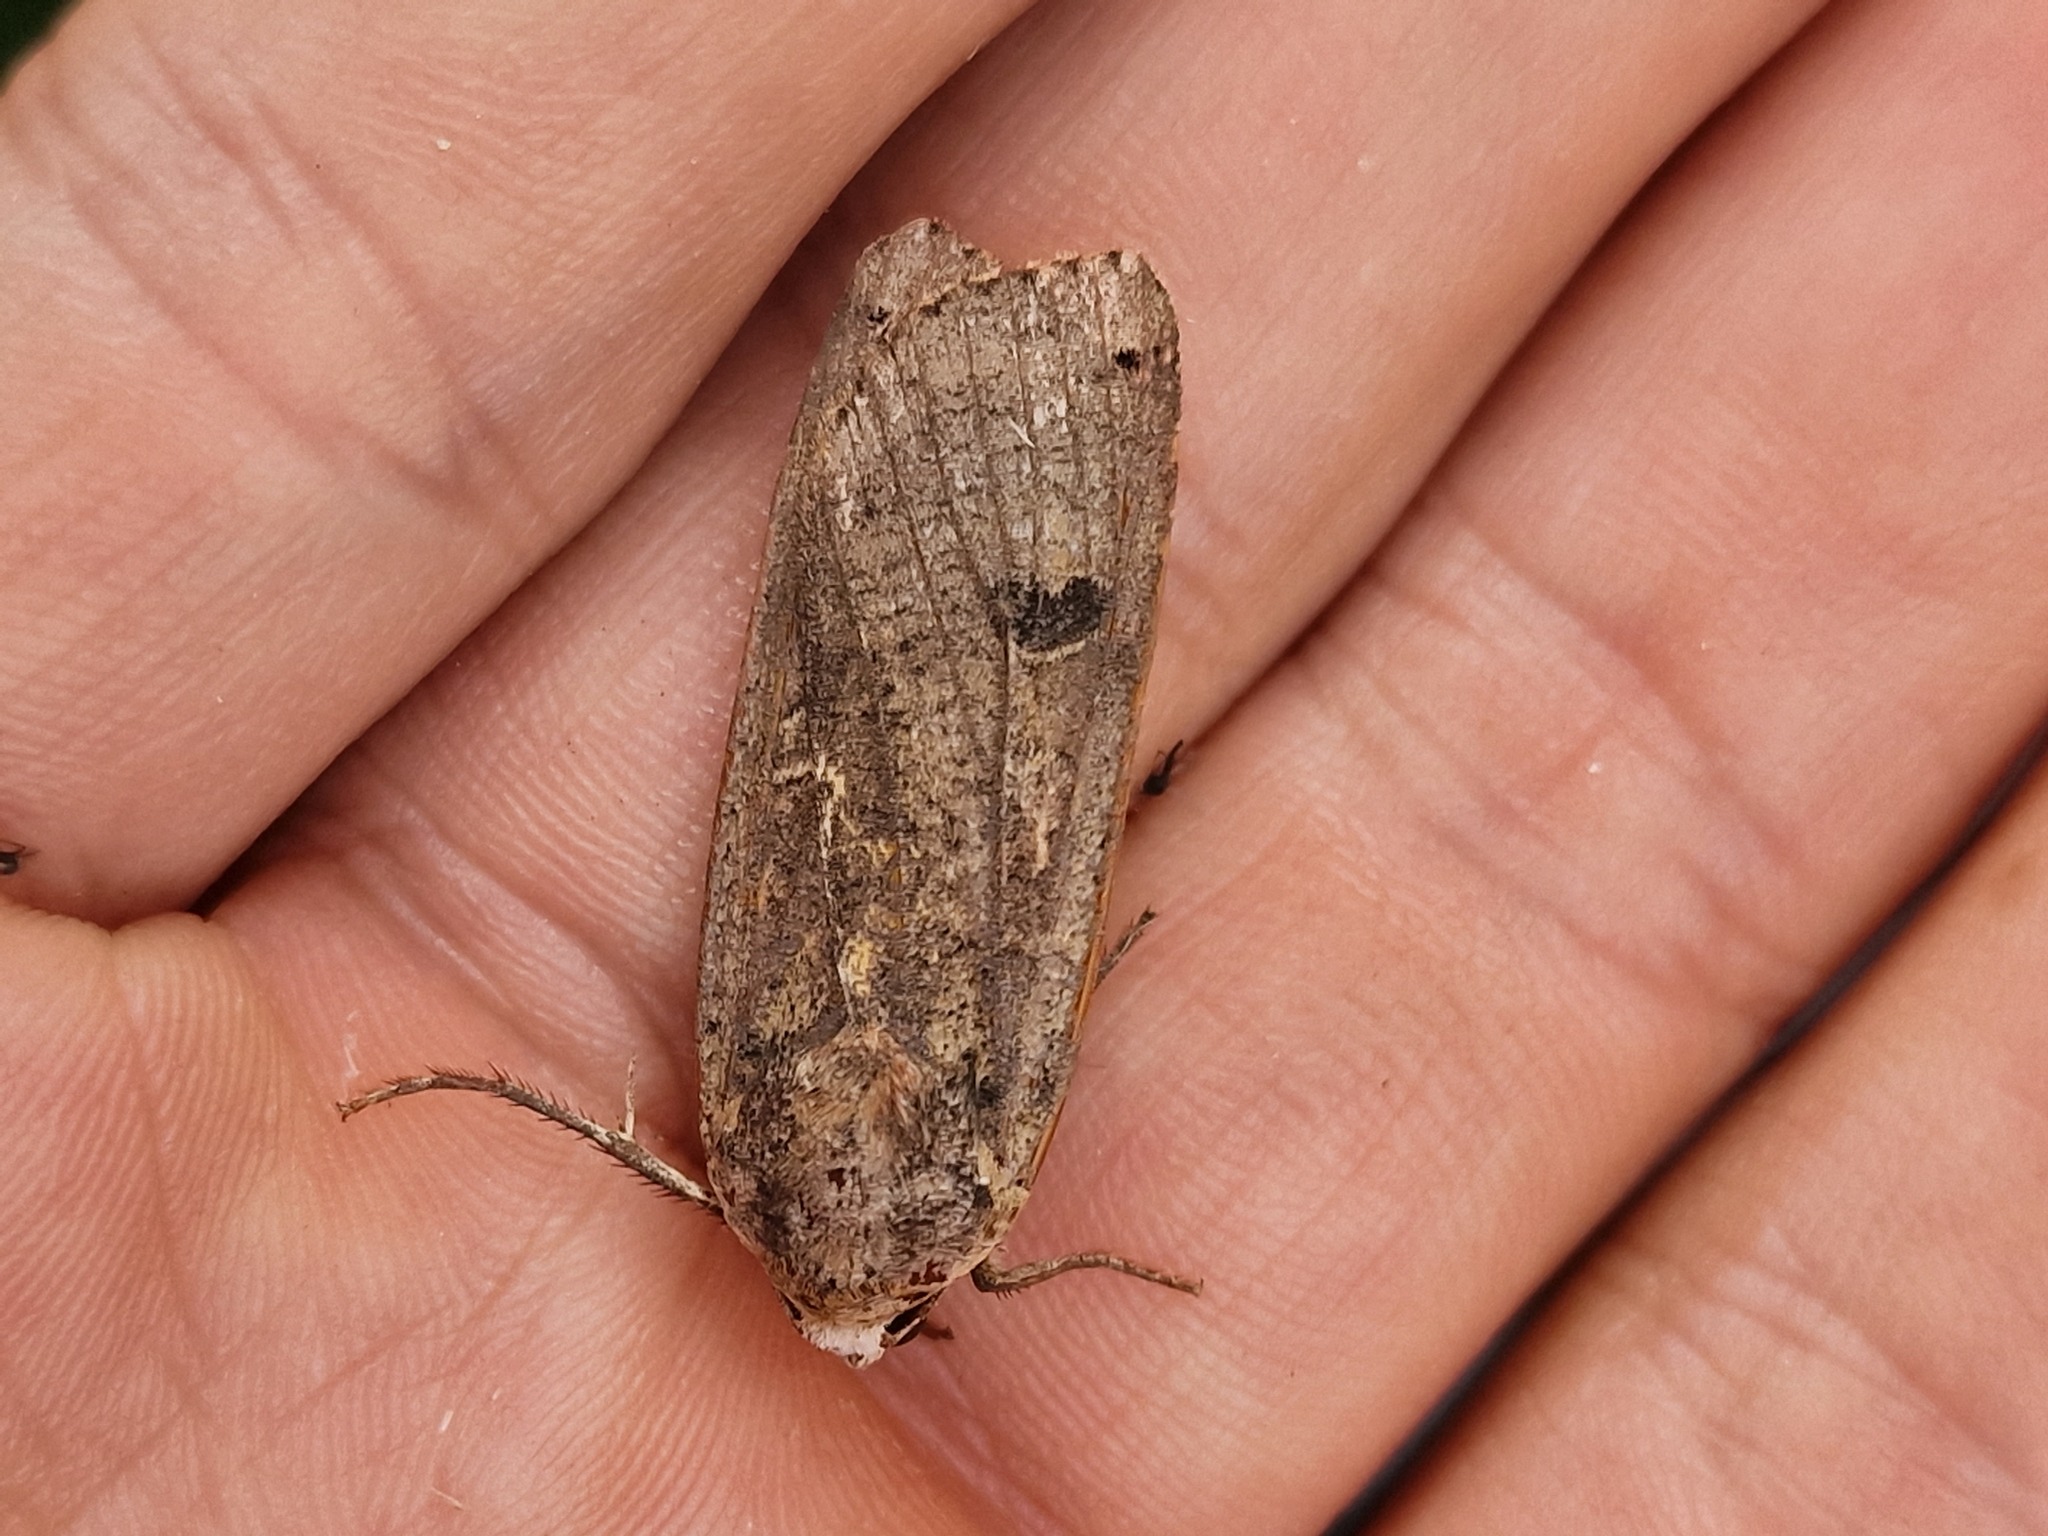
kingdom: Animalia
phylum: Arthropoda
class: Insecta
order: Lepidoptera
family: Noctuidae
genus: Noctua
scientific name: Noctua pronuba
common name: Large yellow underwing
